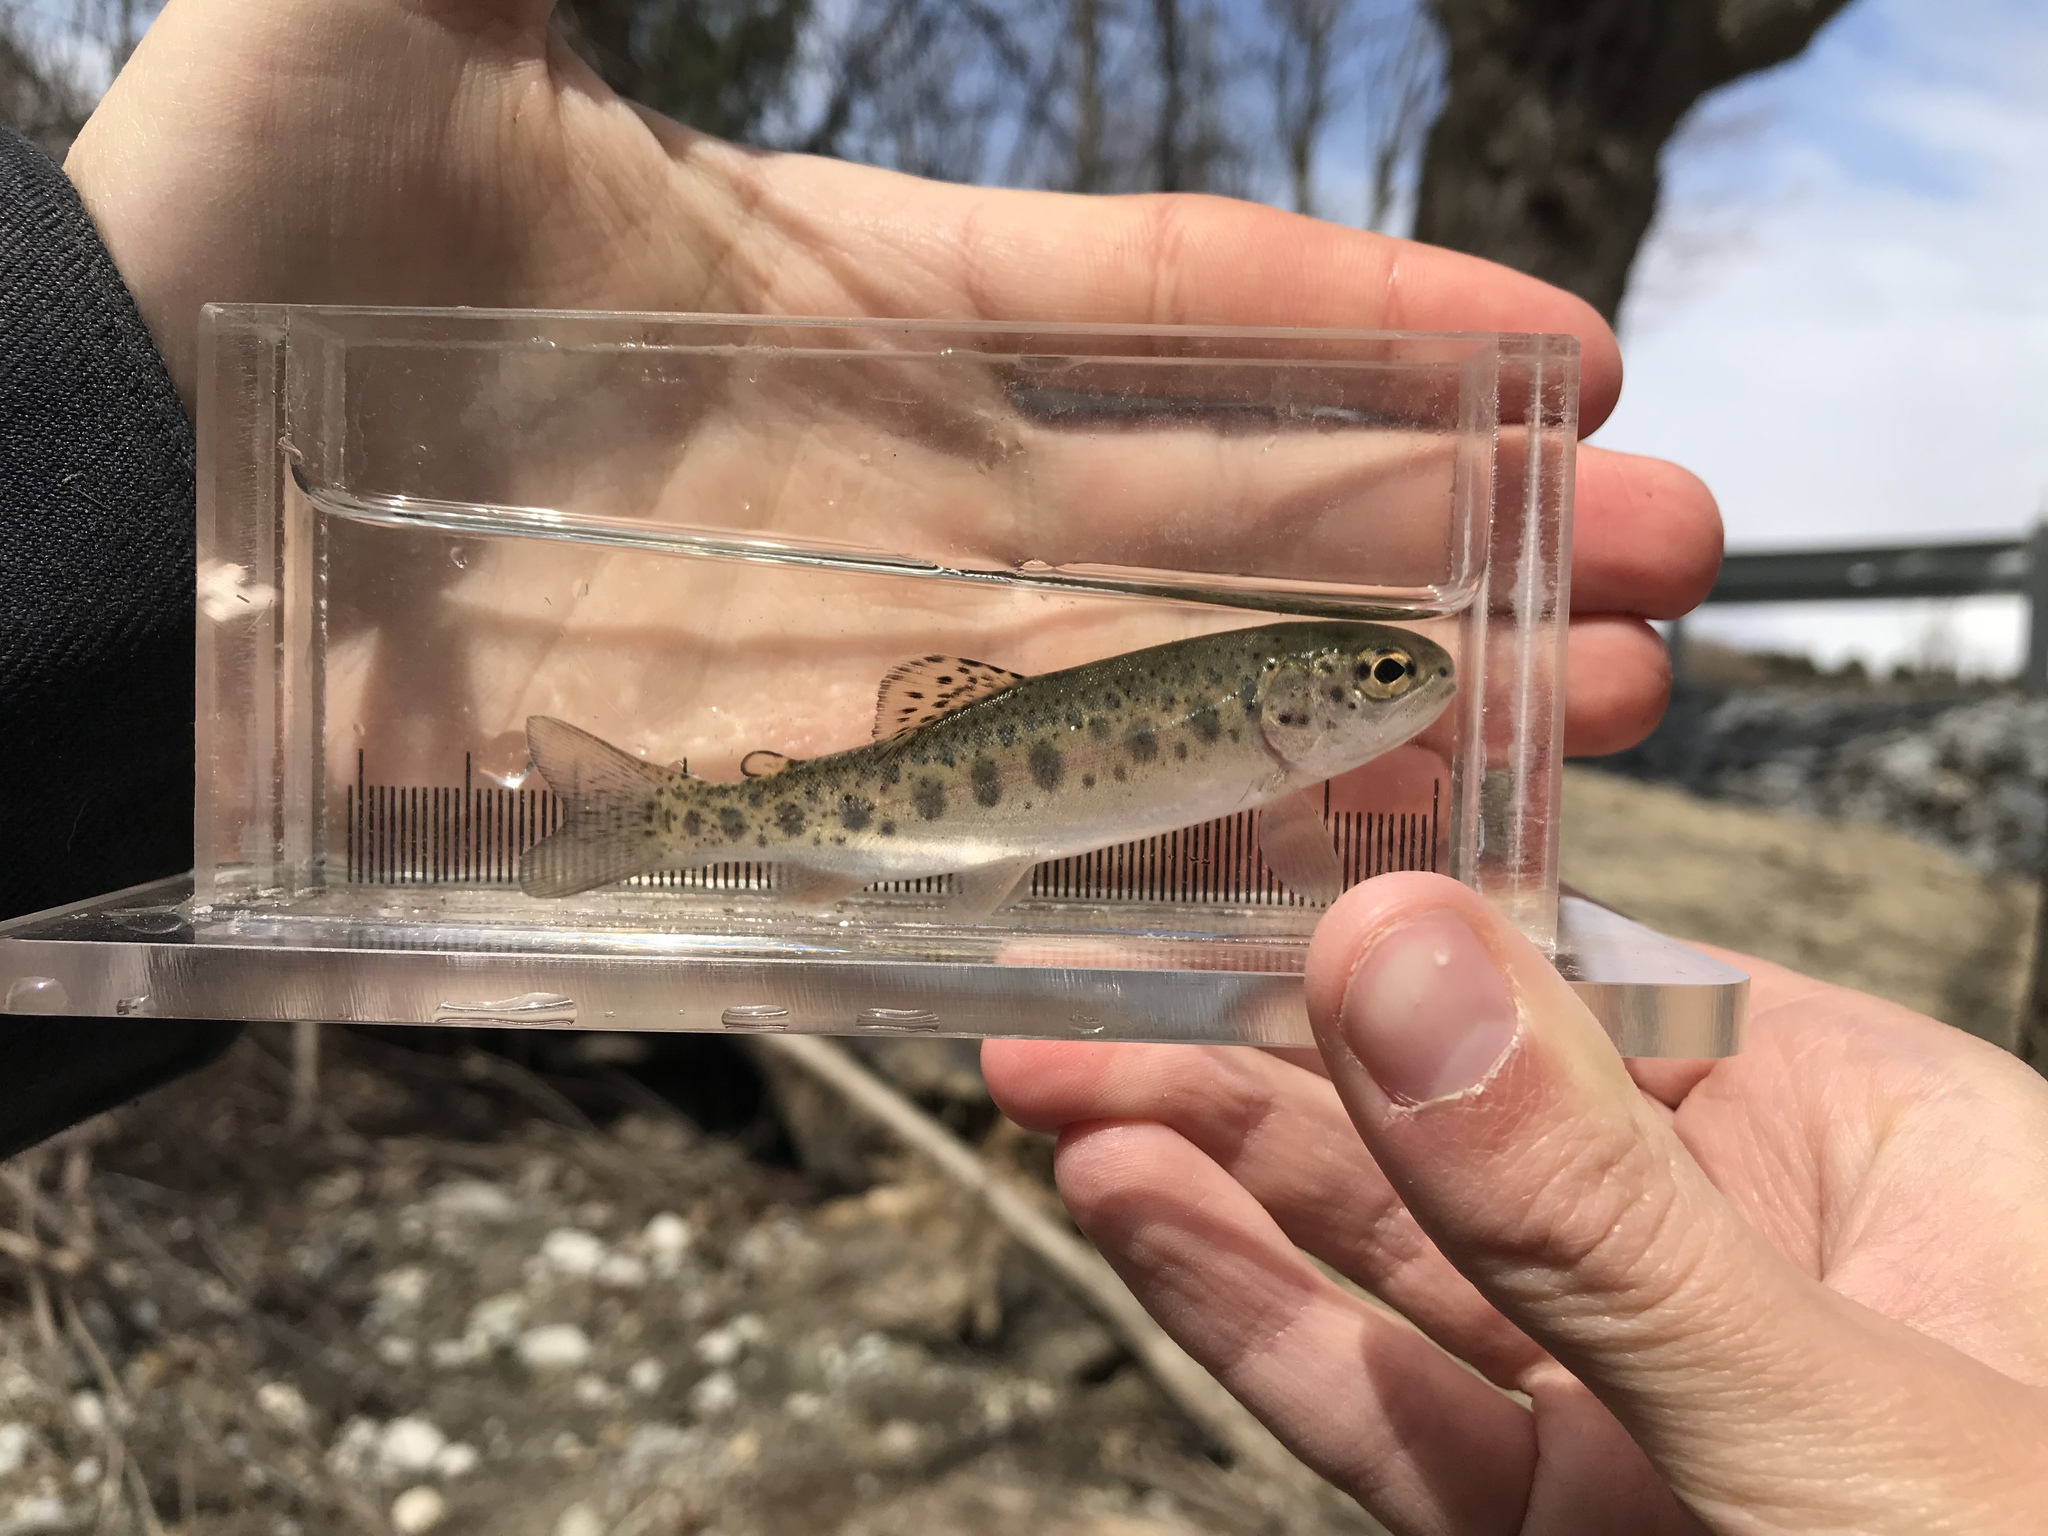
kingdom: Animalia
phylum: Chordata
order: Salmoniformes
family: Salmonidae
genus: Oncorhynchus
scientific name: Oncorhynchus mykiss
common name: Rainbow trout
